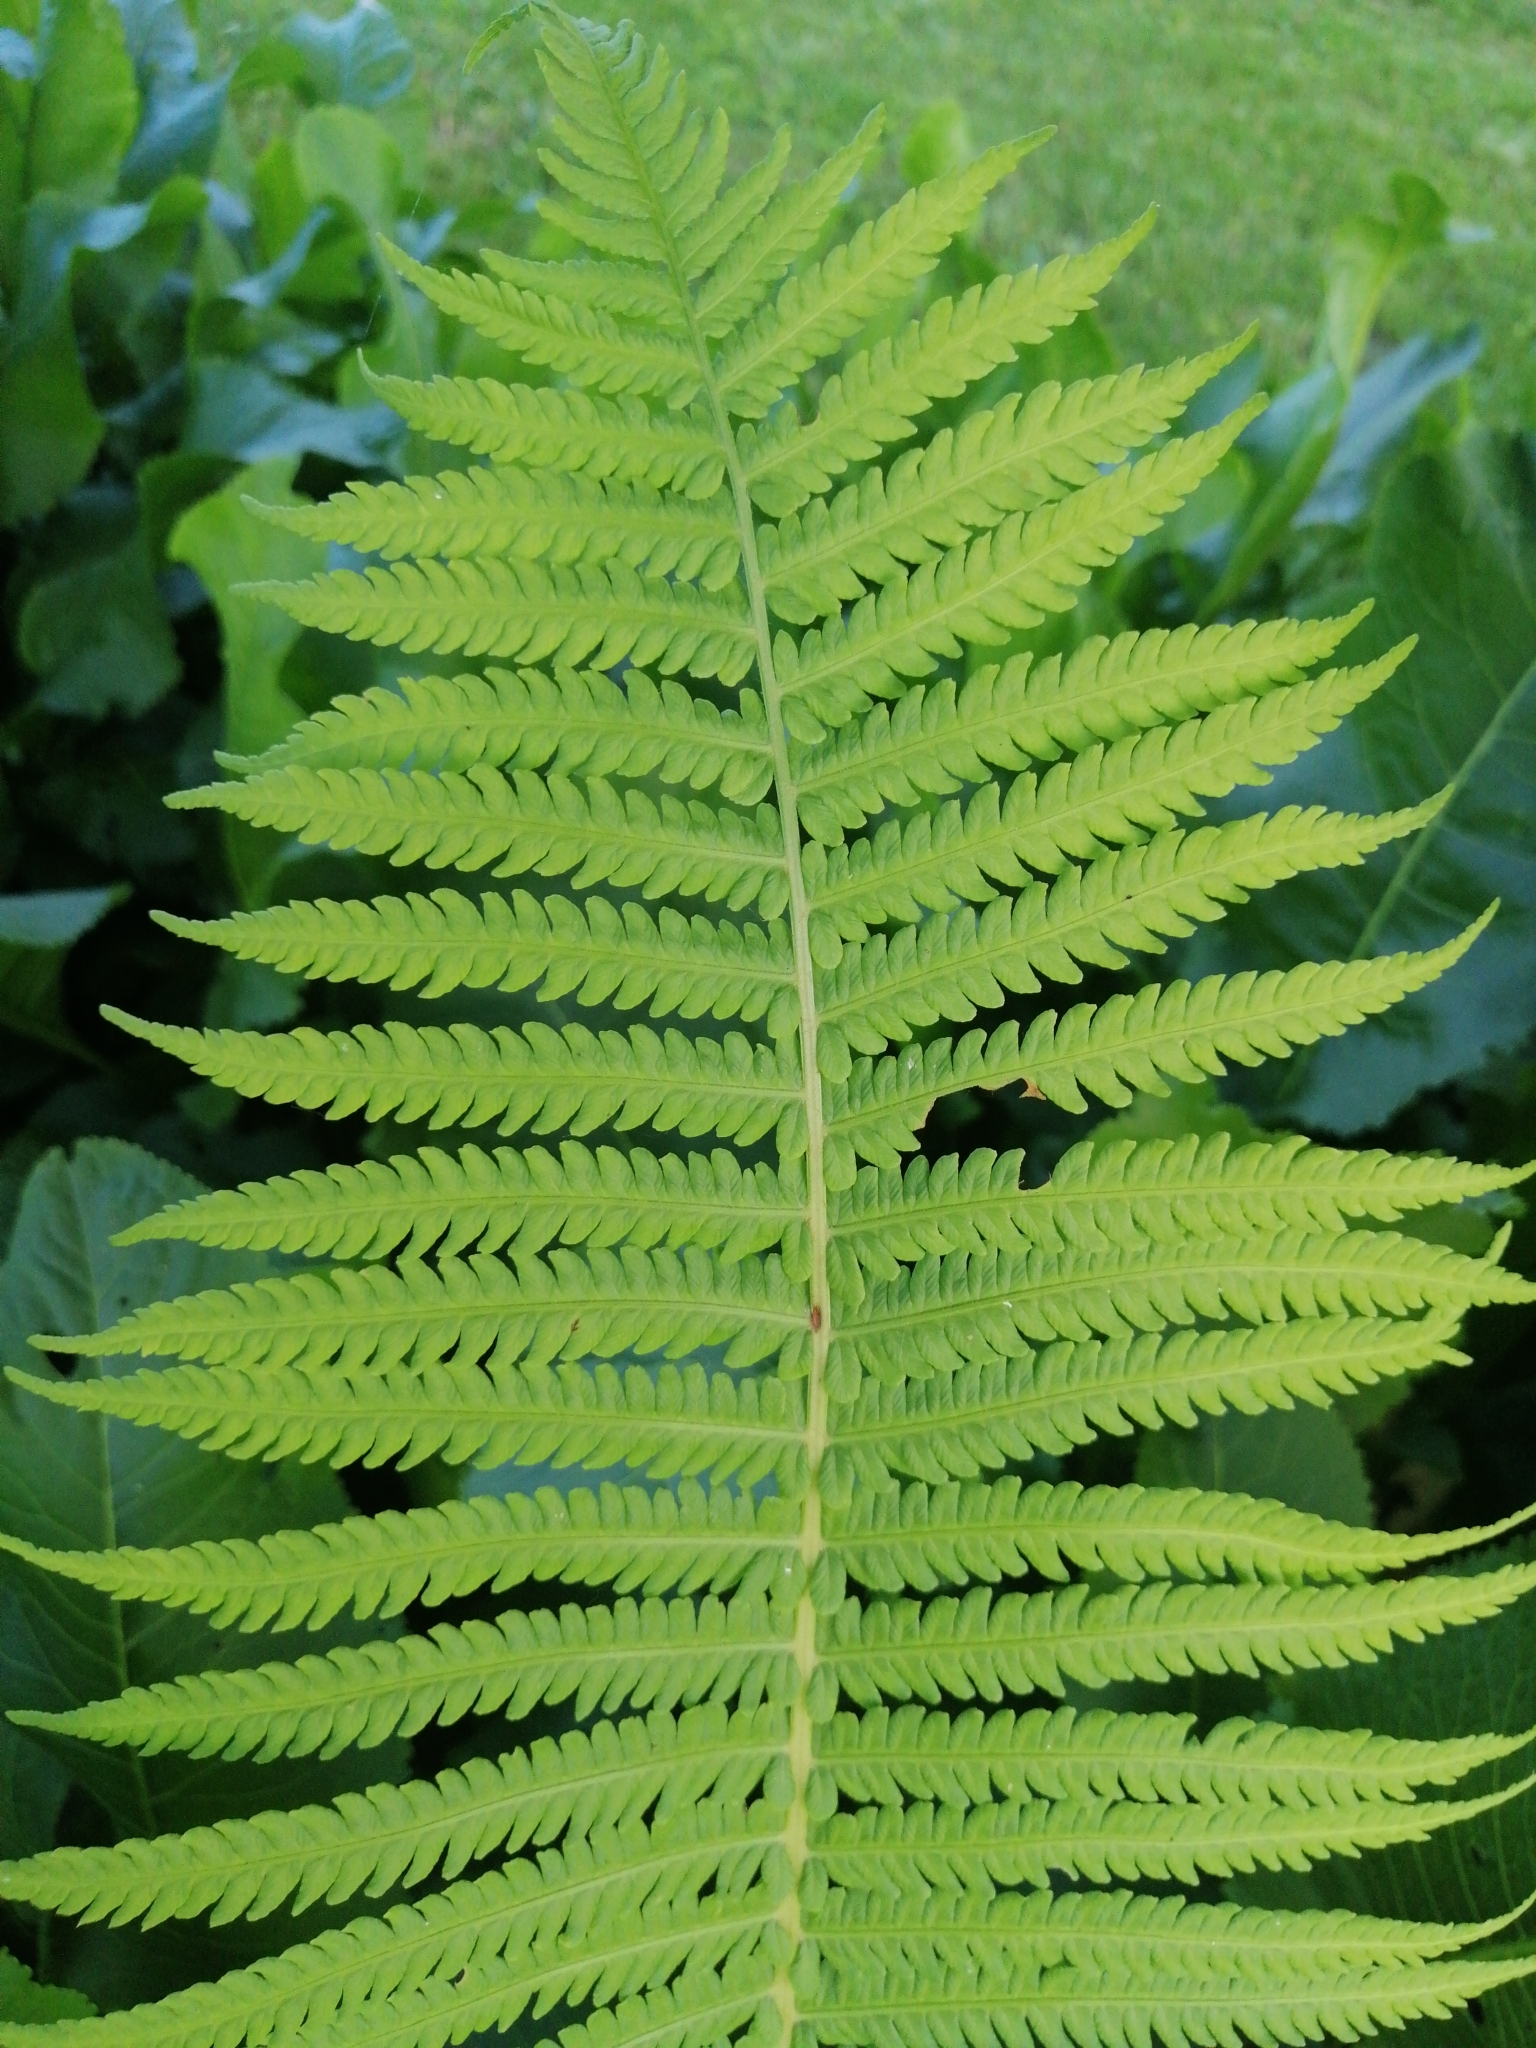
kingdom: Plantae
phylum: Tracheophyta
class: Polypodiopsida
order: Polypodiales
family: Onocleaceae
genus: Matteuccia
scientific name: Matteuccia struthiopteris
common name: Ostrich fern
